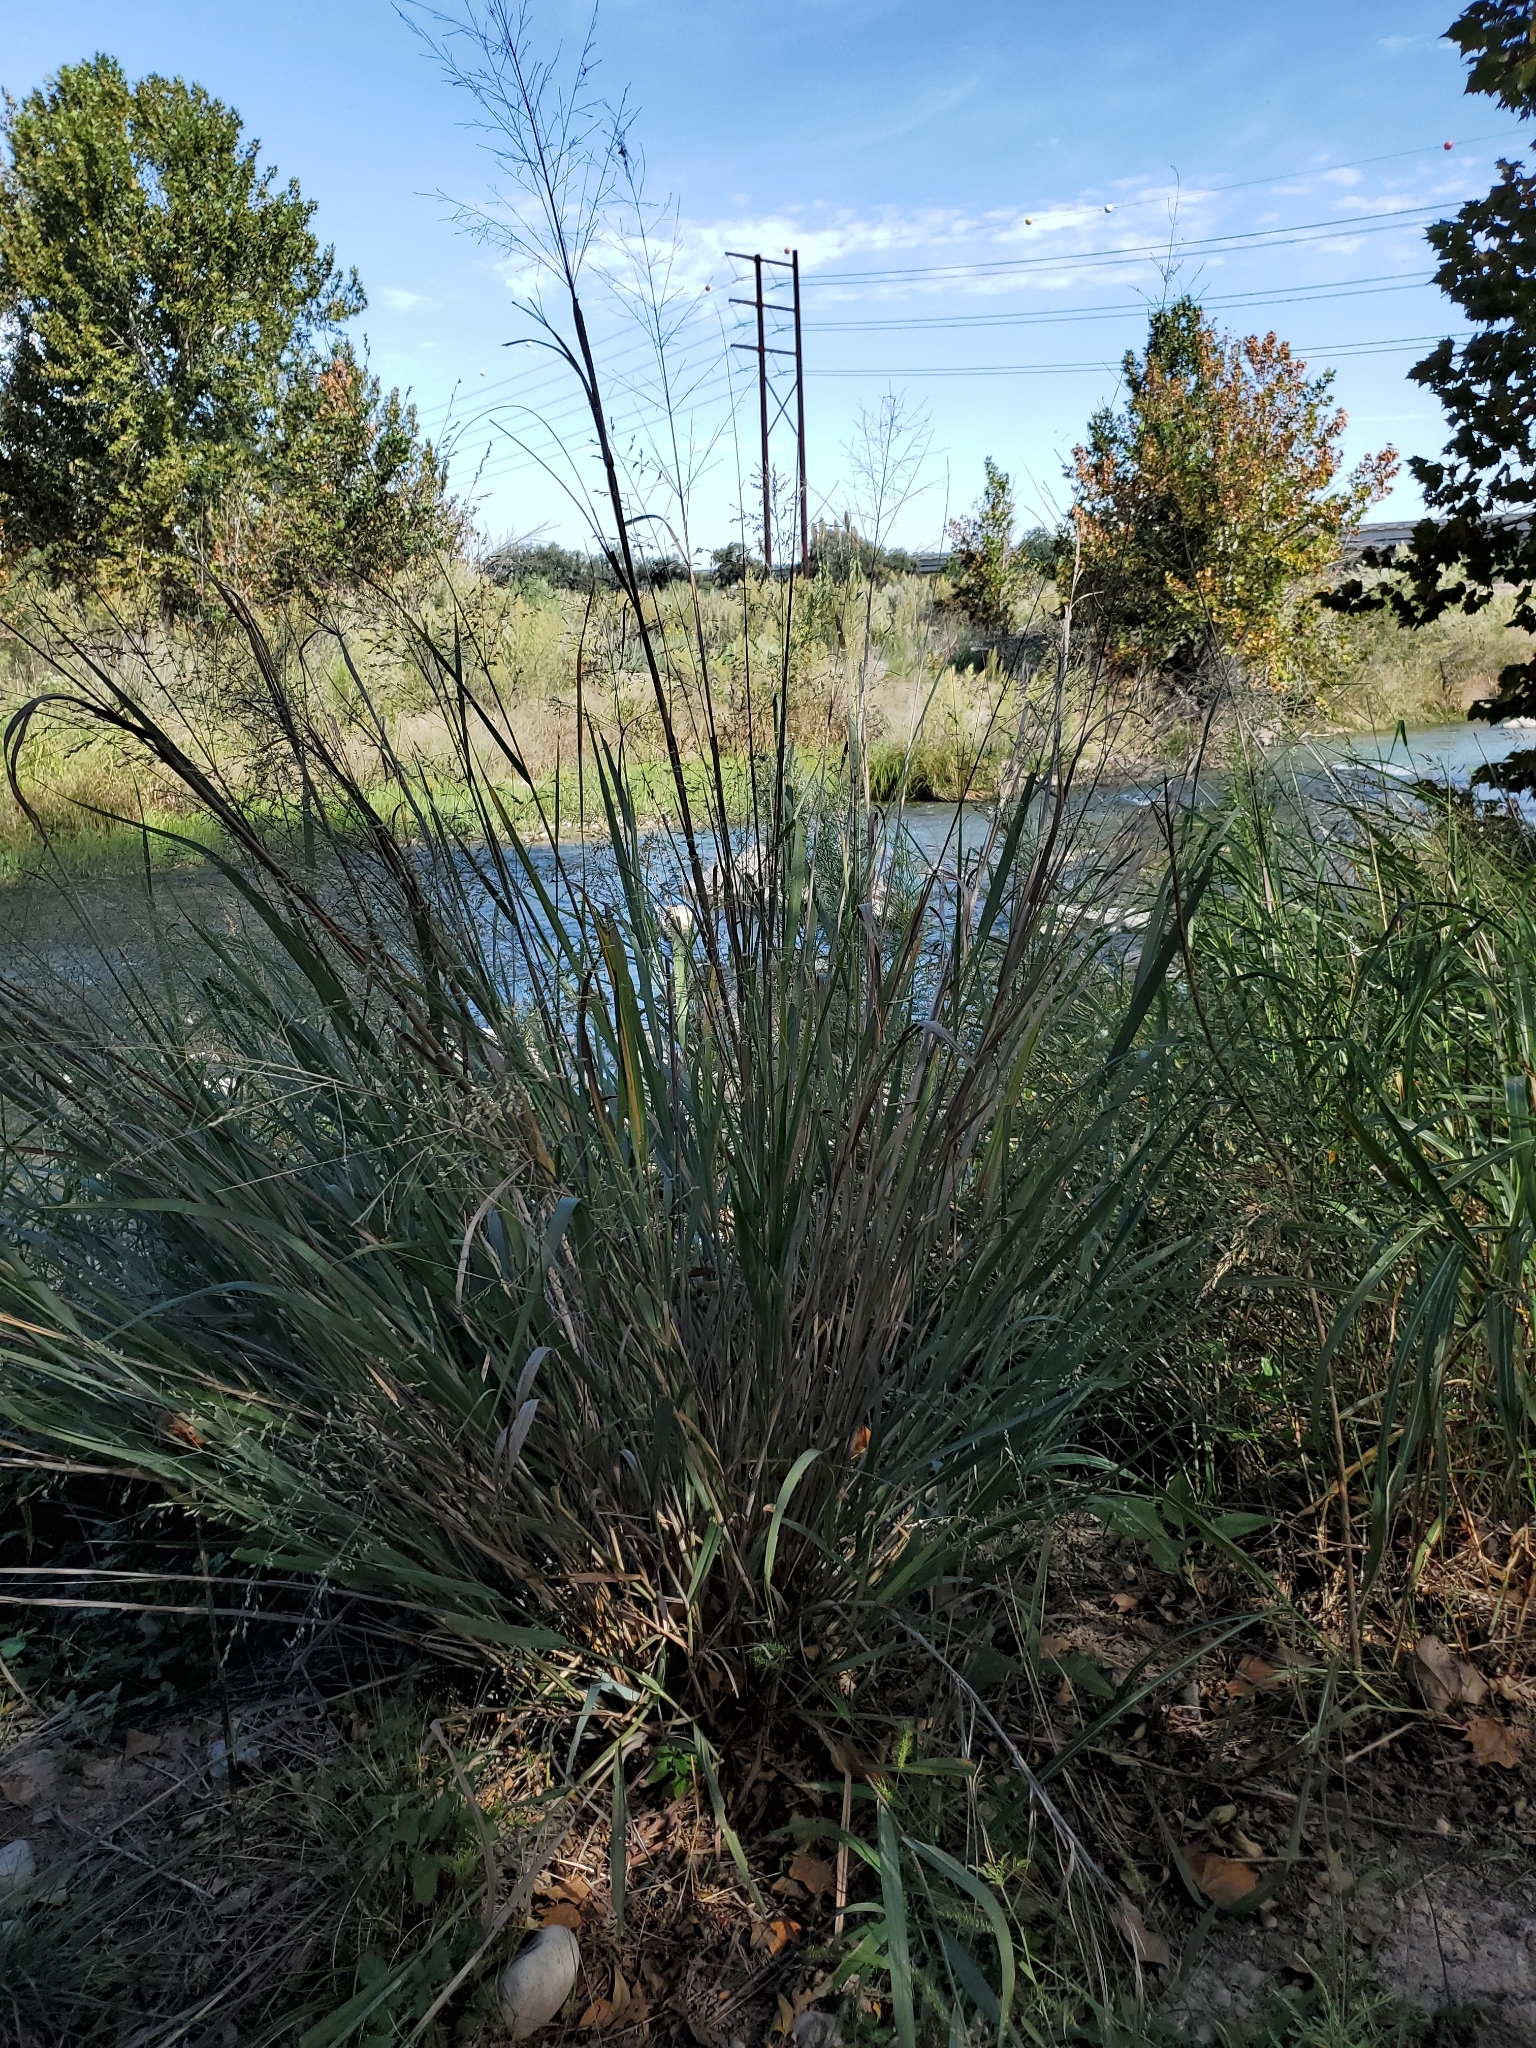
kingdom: Plantae
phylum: Tracheophyta
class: Liliopsida
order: Poales
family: Poaceae
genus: Panicum
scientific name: Panicum virgatum
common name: Switchgrass
